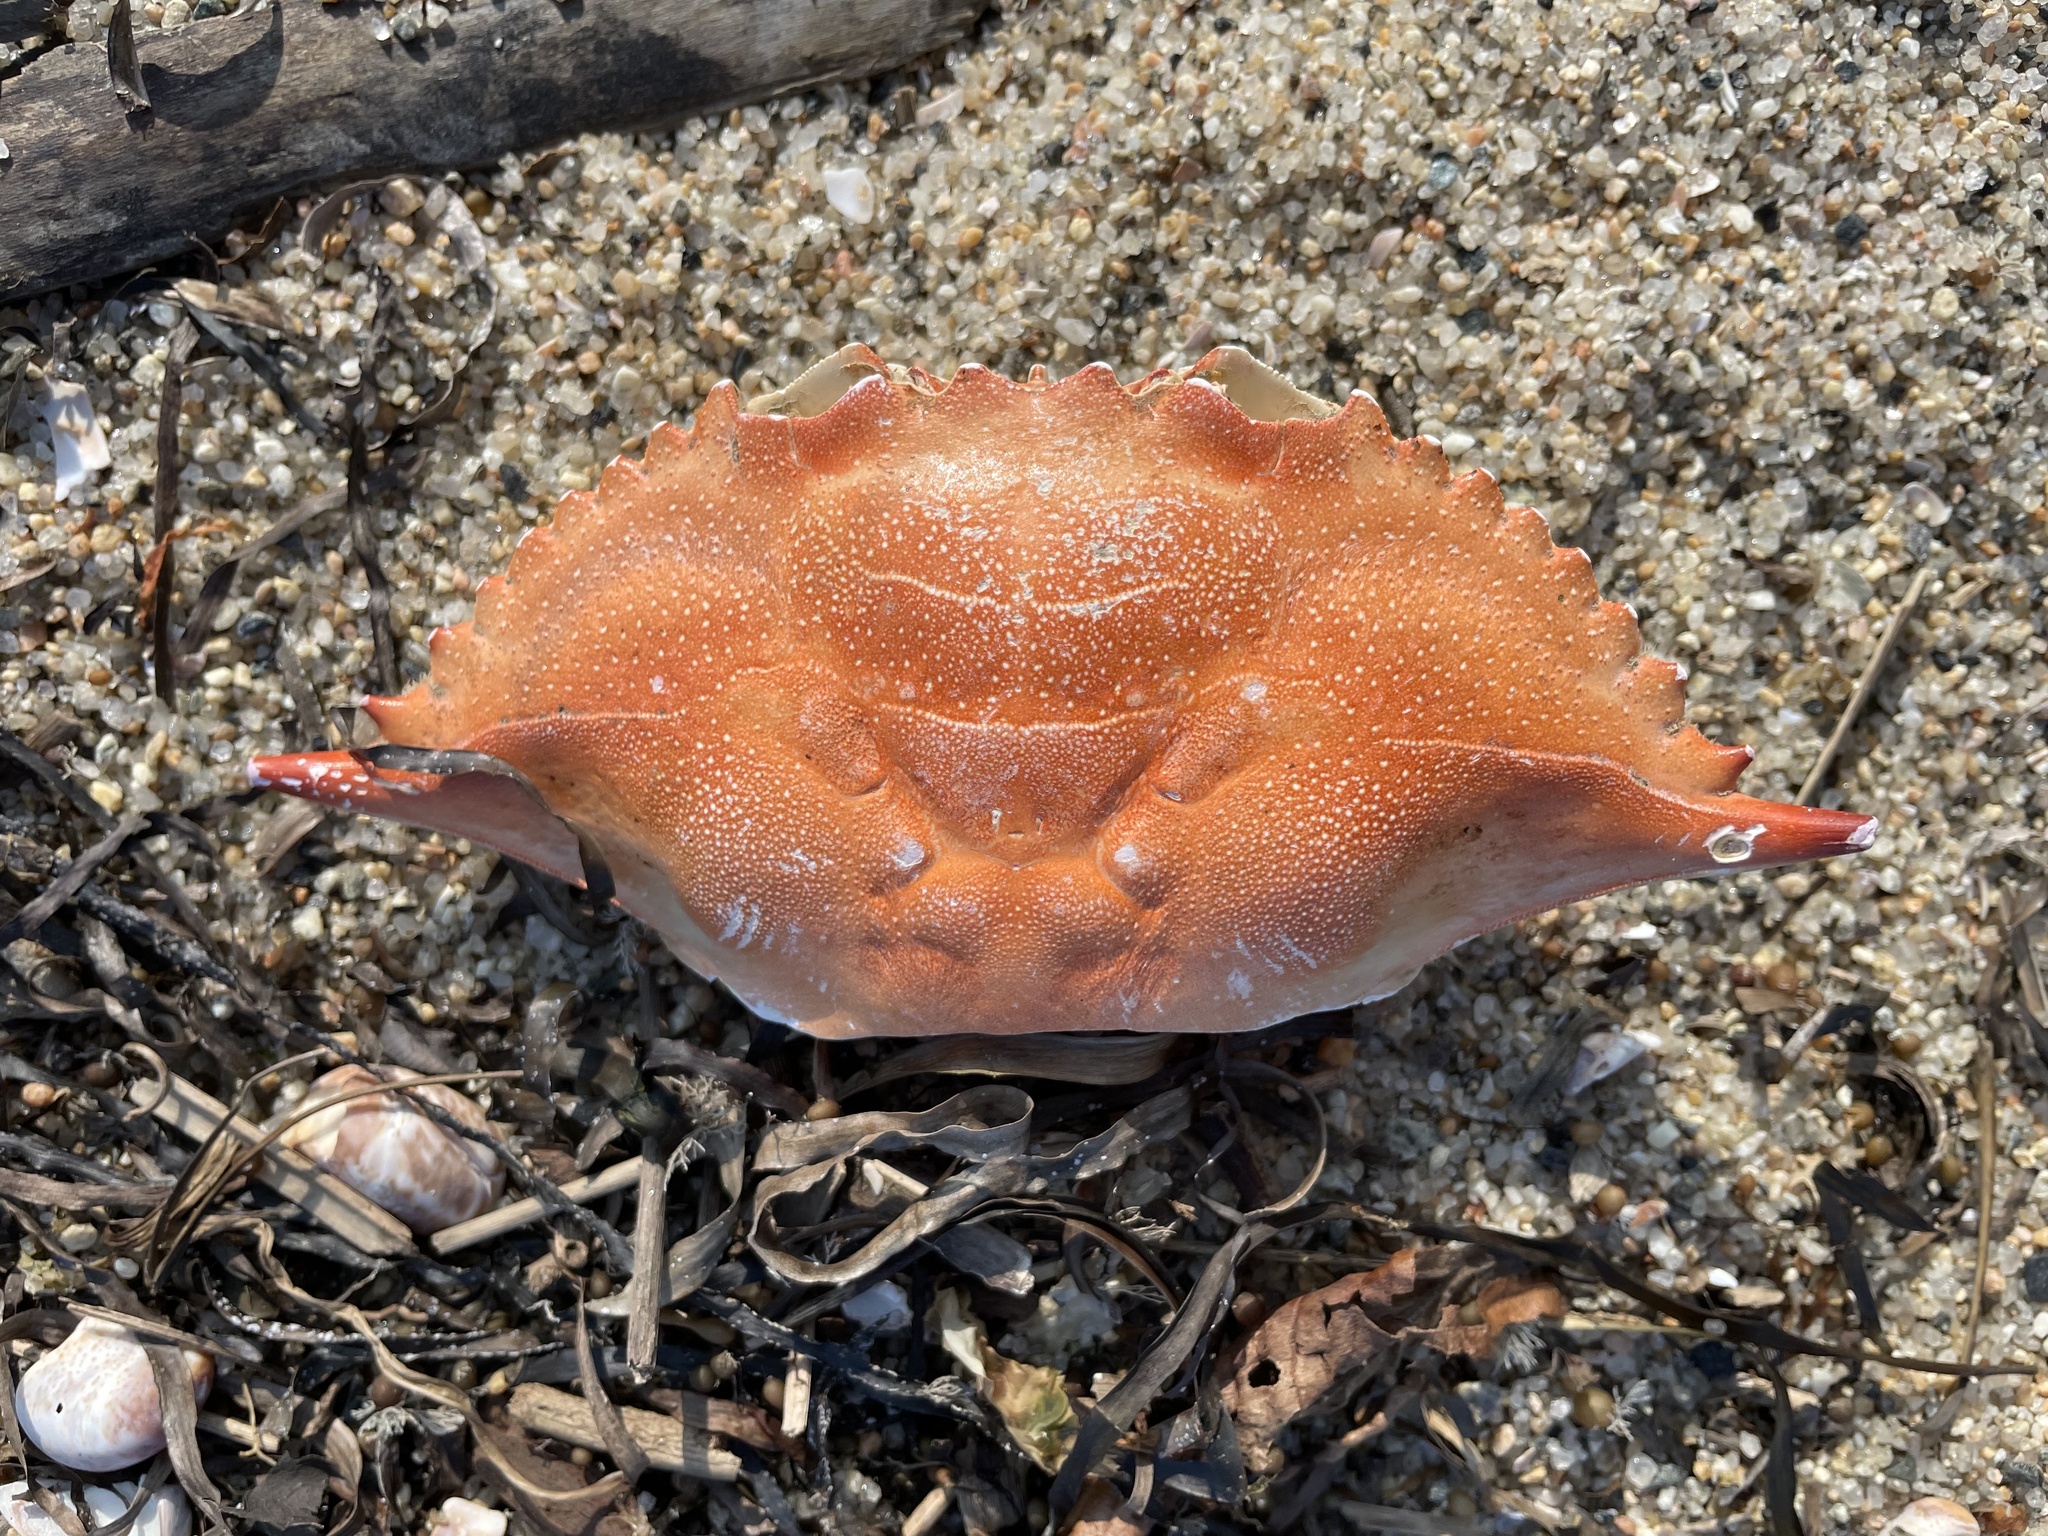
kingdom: Animalia
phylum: Arthropoda
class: Malacostraca
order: Decapoda
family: Portunidae
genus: Callinectes
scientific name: Callinectes sapidus
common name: Blue crab
